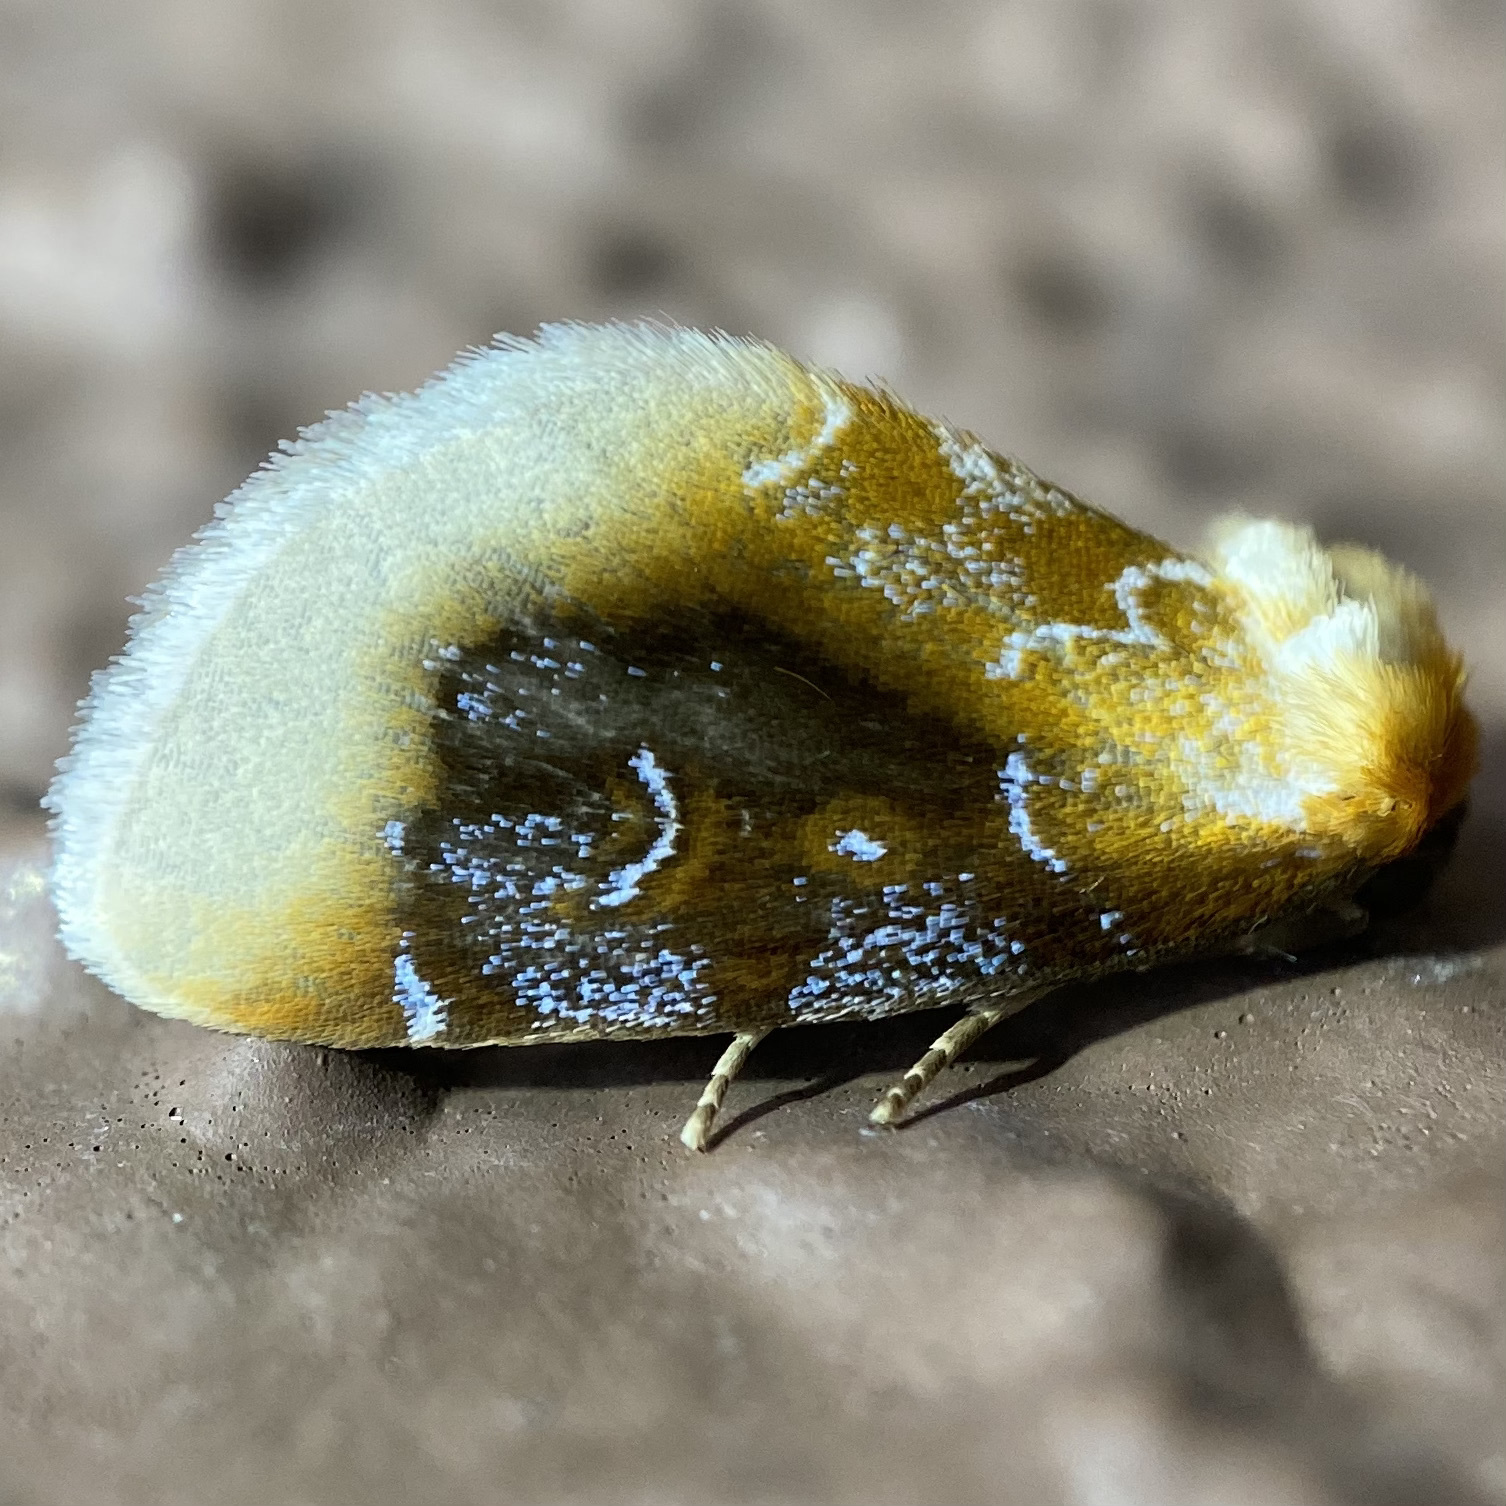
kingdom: Animalia
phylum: Arthropoda
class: Insecta
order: Lepidoptera
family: Noctuidae
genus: Chrysoecia
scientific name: Chrysoecia scira
